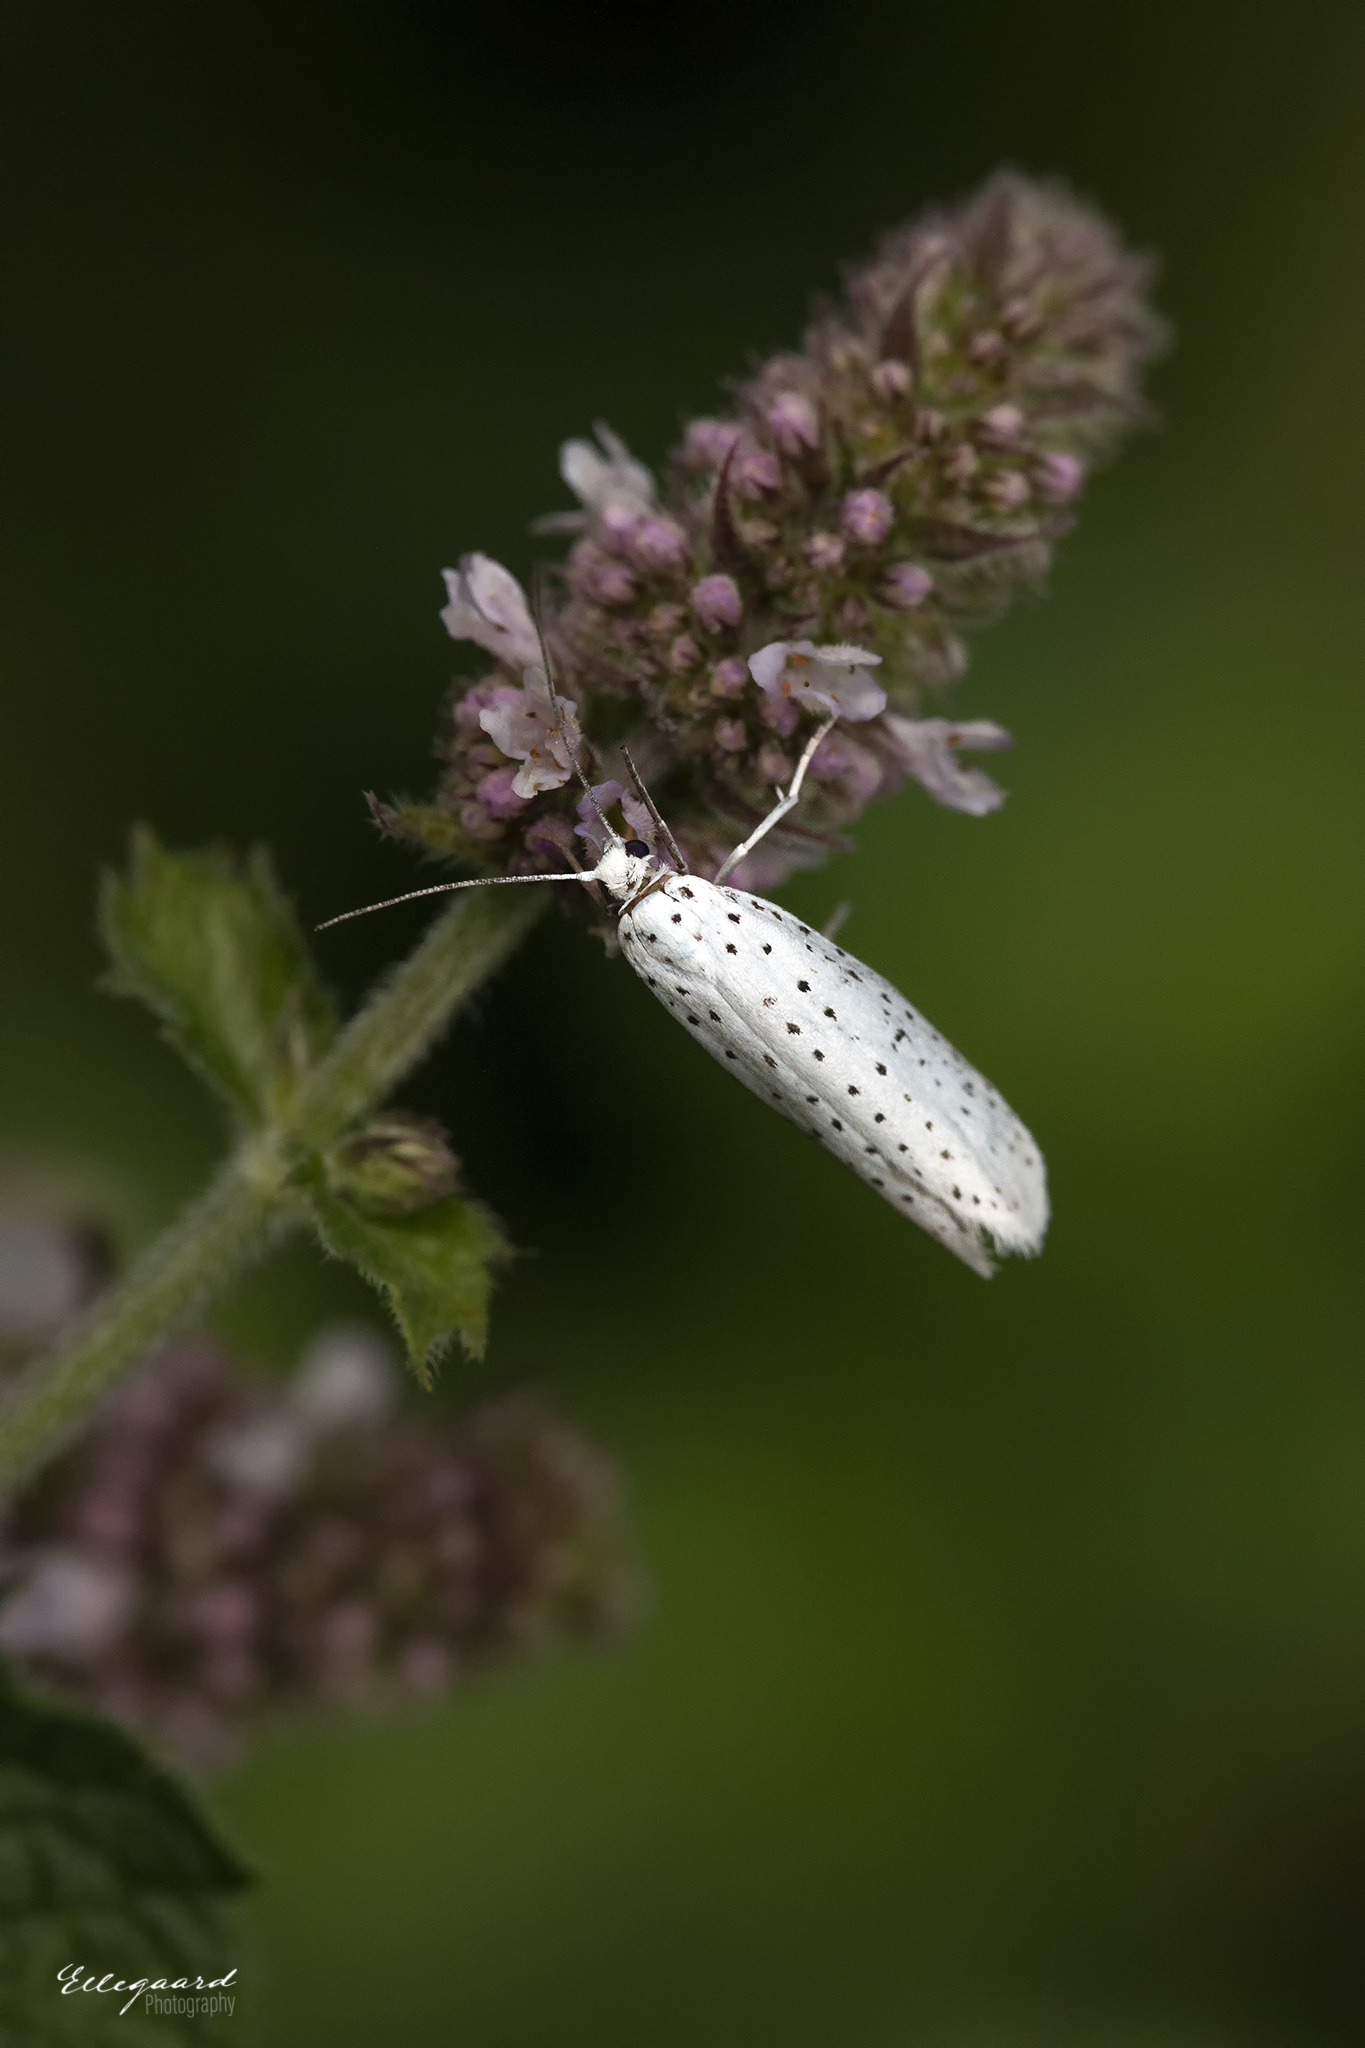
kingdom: Animalia
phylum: Arthropoda
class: Insecta
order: Lepidoptera
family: Yponomeutidae
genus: Yponomeuta
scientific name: Yponomeuta evonymella
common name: Bird-cherry ermine
